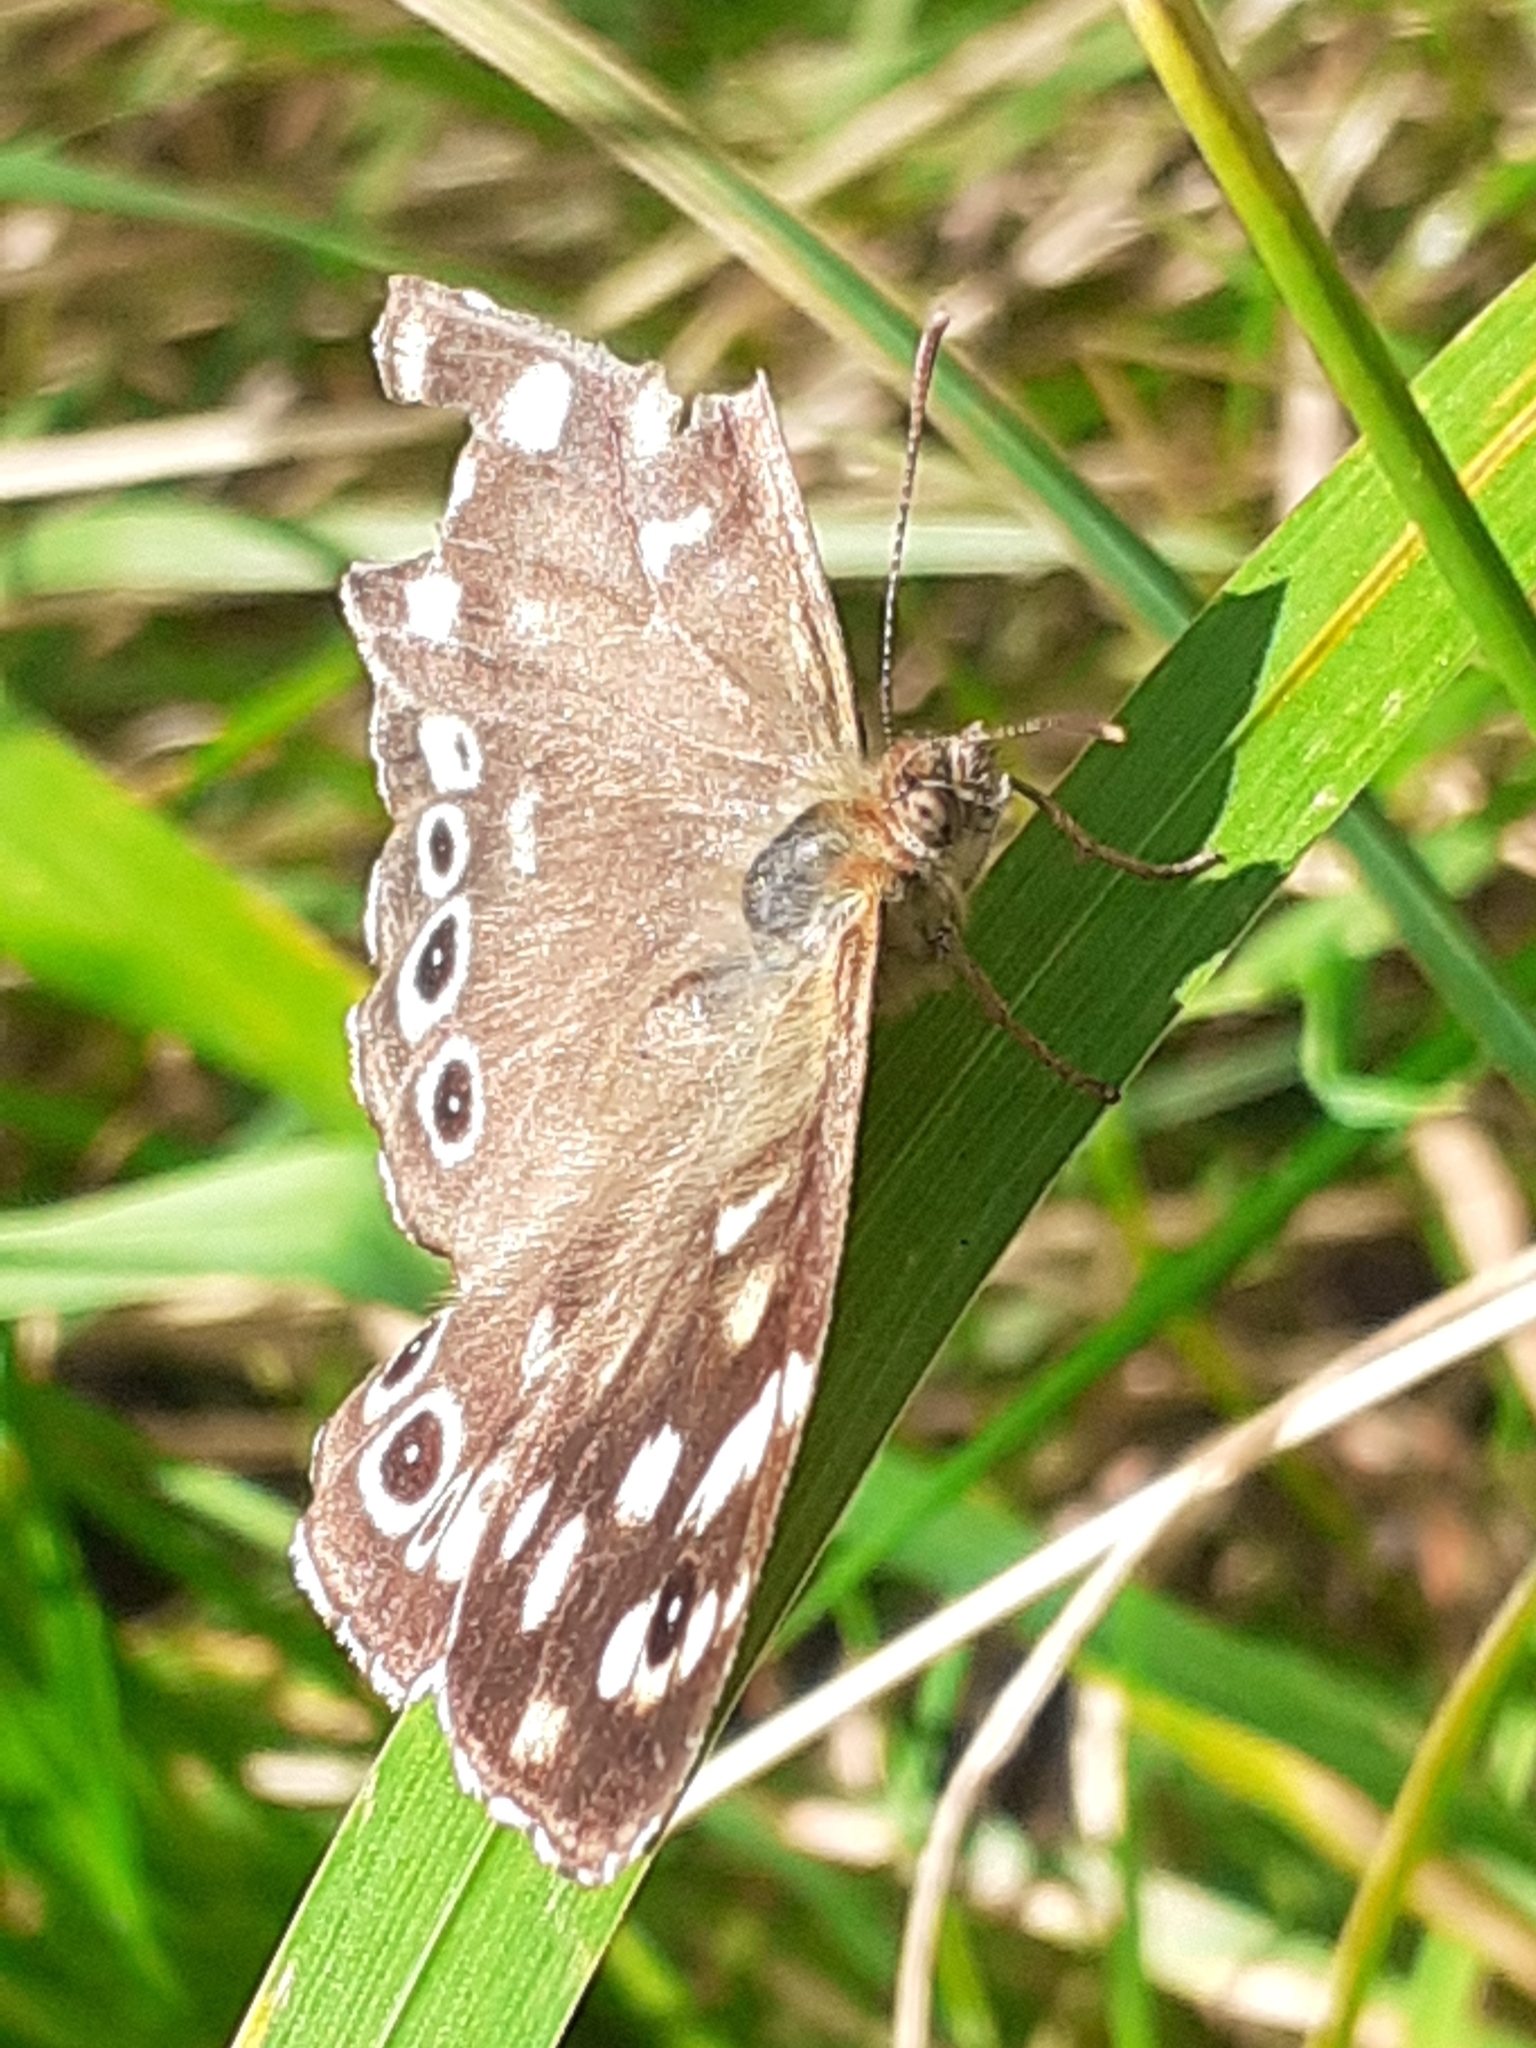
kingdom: Animalia
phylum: Arthropoda
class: Insecta
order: Lepidoptera
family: Nymphalidae
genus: Pararge
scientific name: Pararge aegeria
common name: Speckled wood
